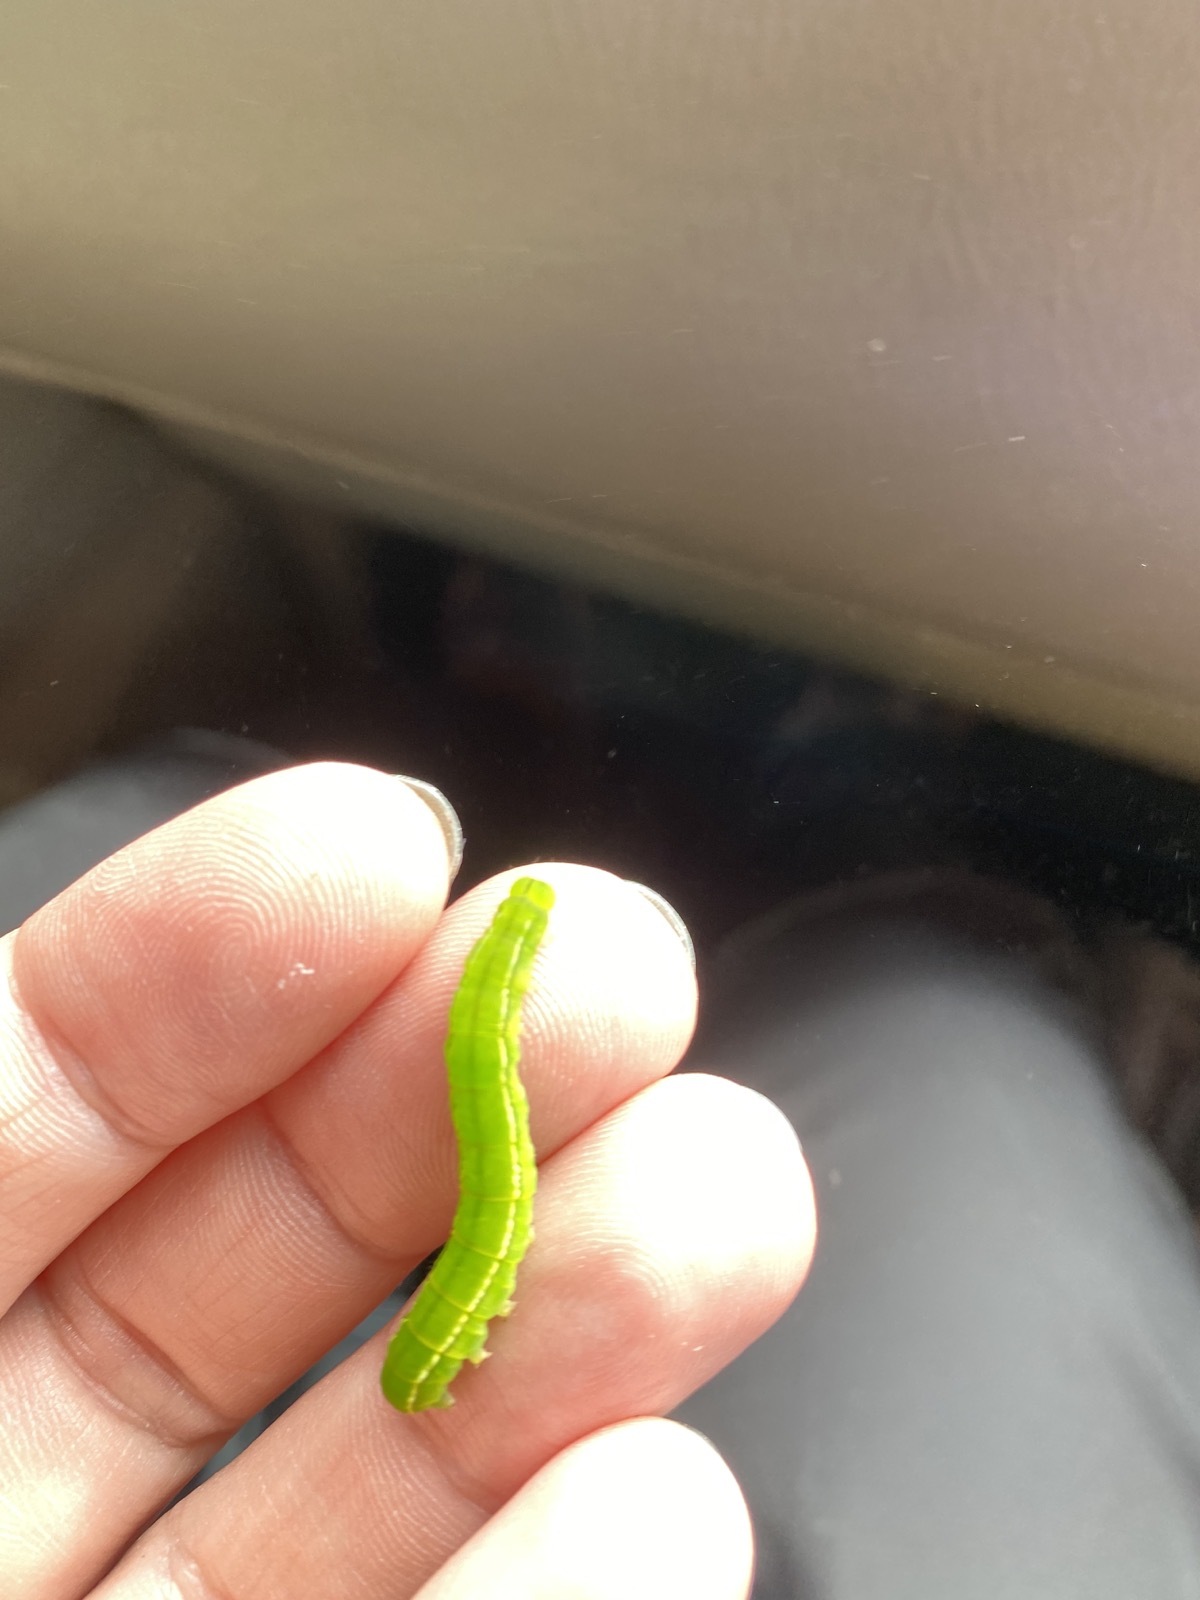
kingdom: Animalia
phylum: Arthropoda
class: Insecta
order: Lepidoptera
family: Erebidae
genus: Scoliopteryx
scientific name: Scoliopteryx libatrix
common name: Herald
